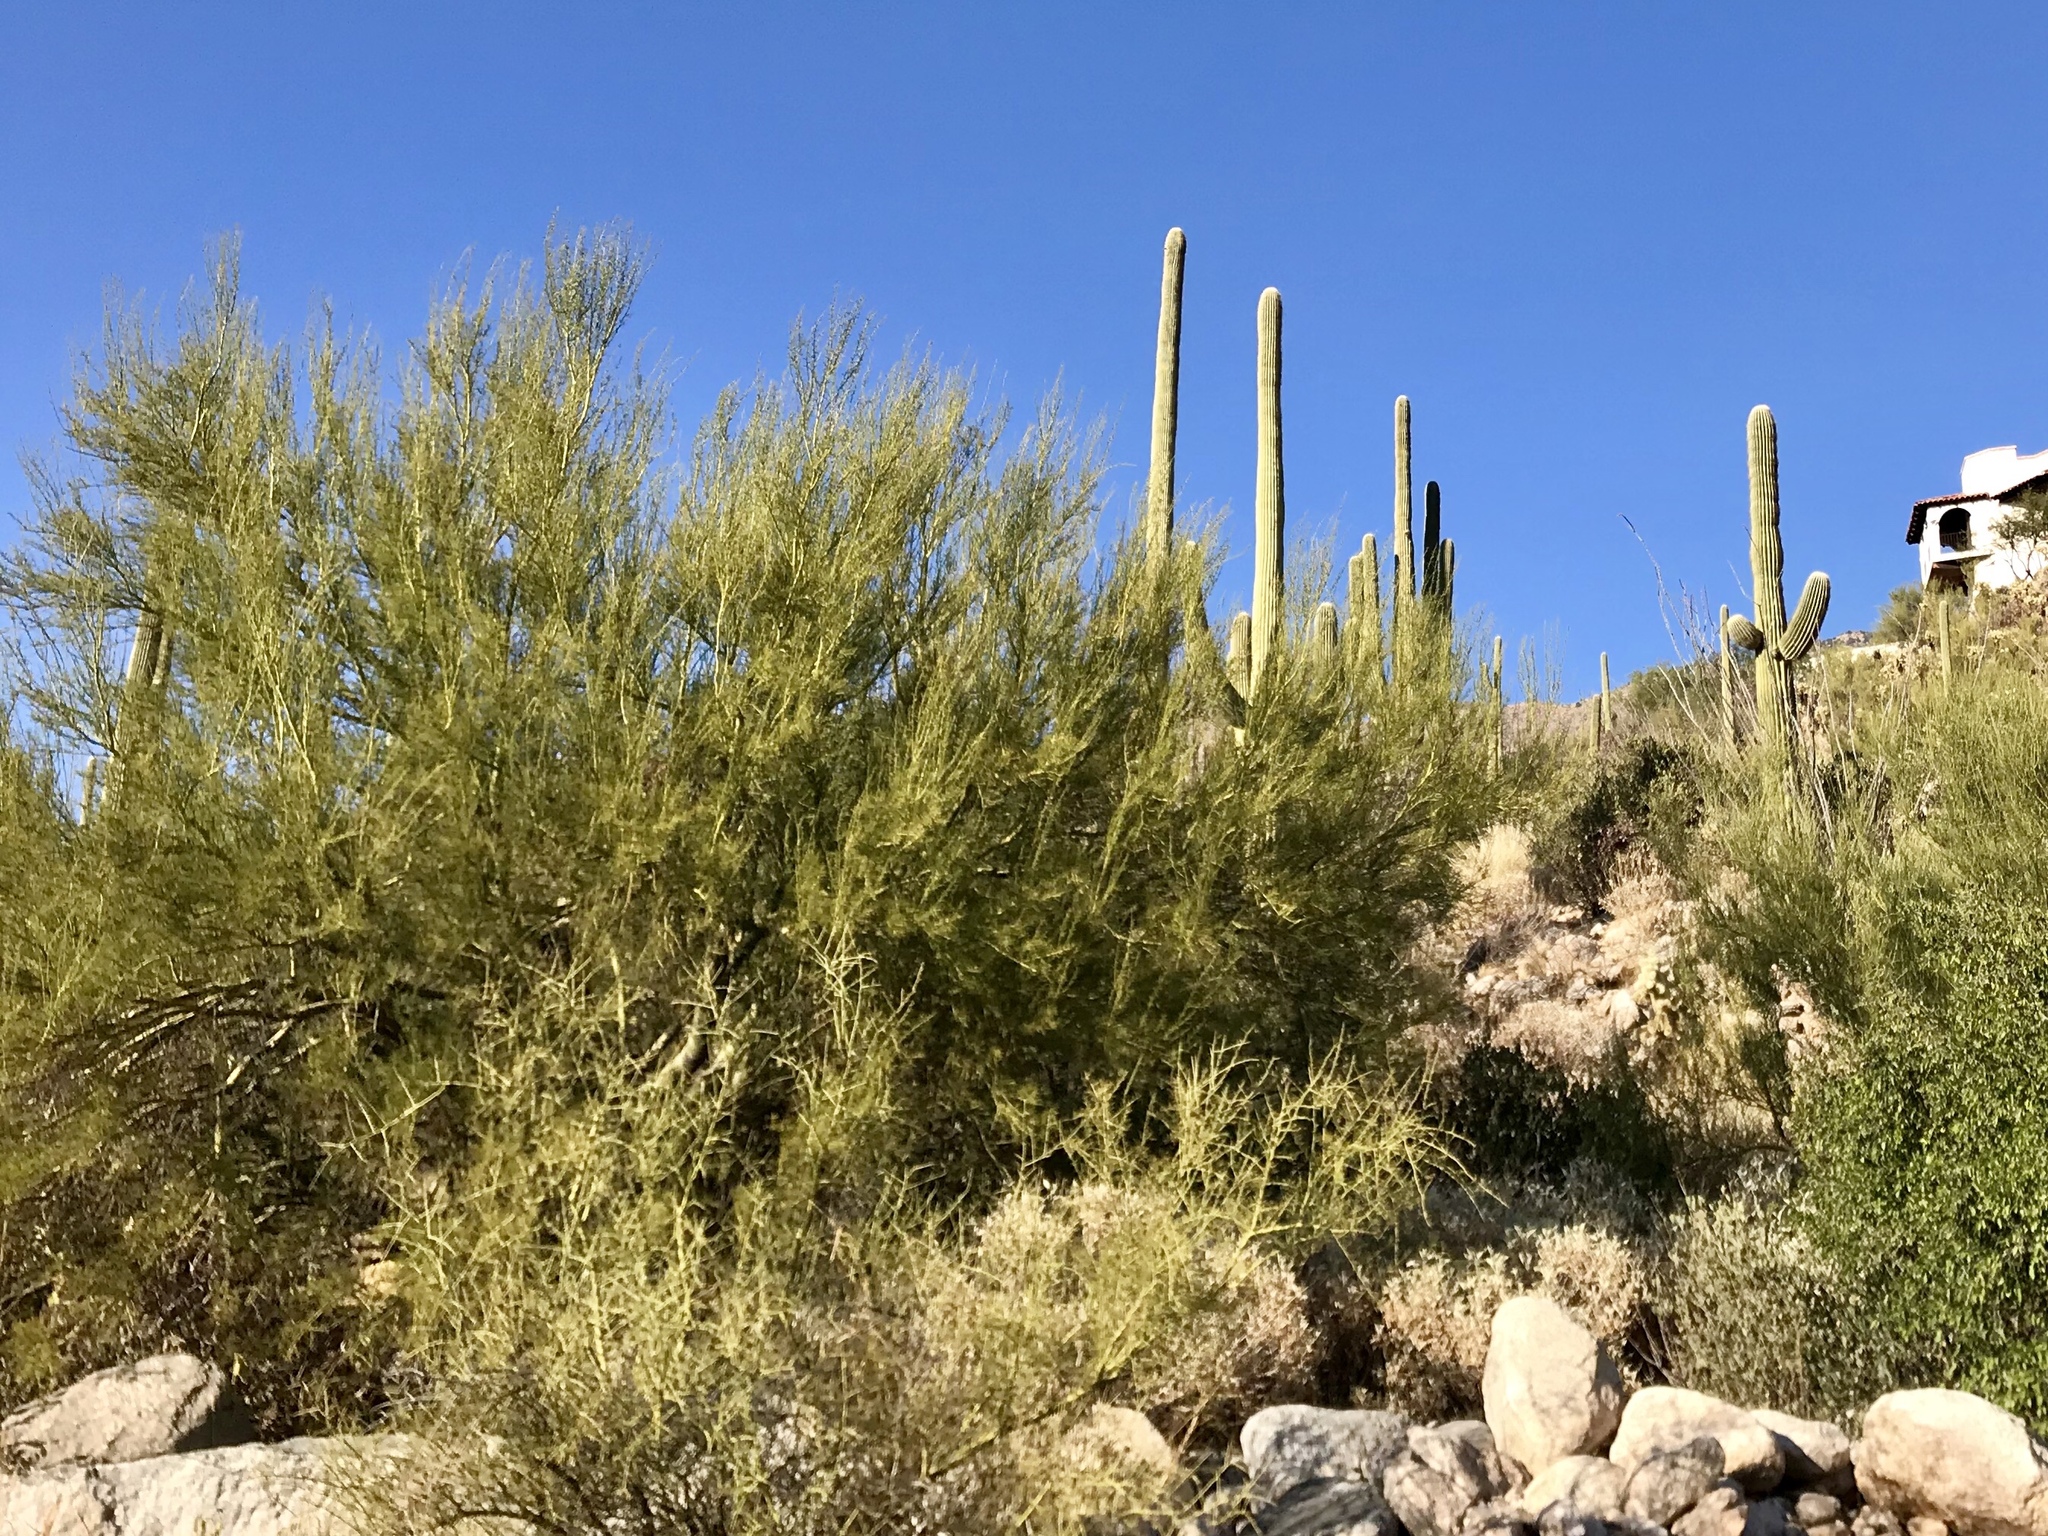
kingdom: Plantae
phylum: Tracheophyta
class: Magnoliopsida
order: Fabales
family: Fabaceae
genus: Parkinsonia
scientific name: Parkinsonia microphylla
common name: Yellow paloverde
